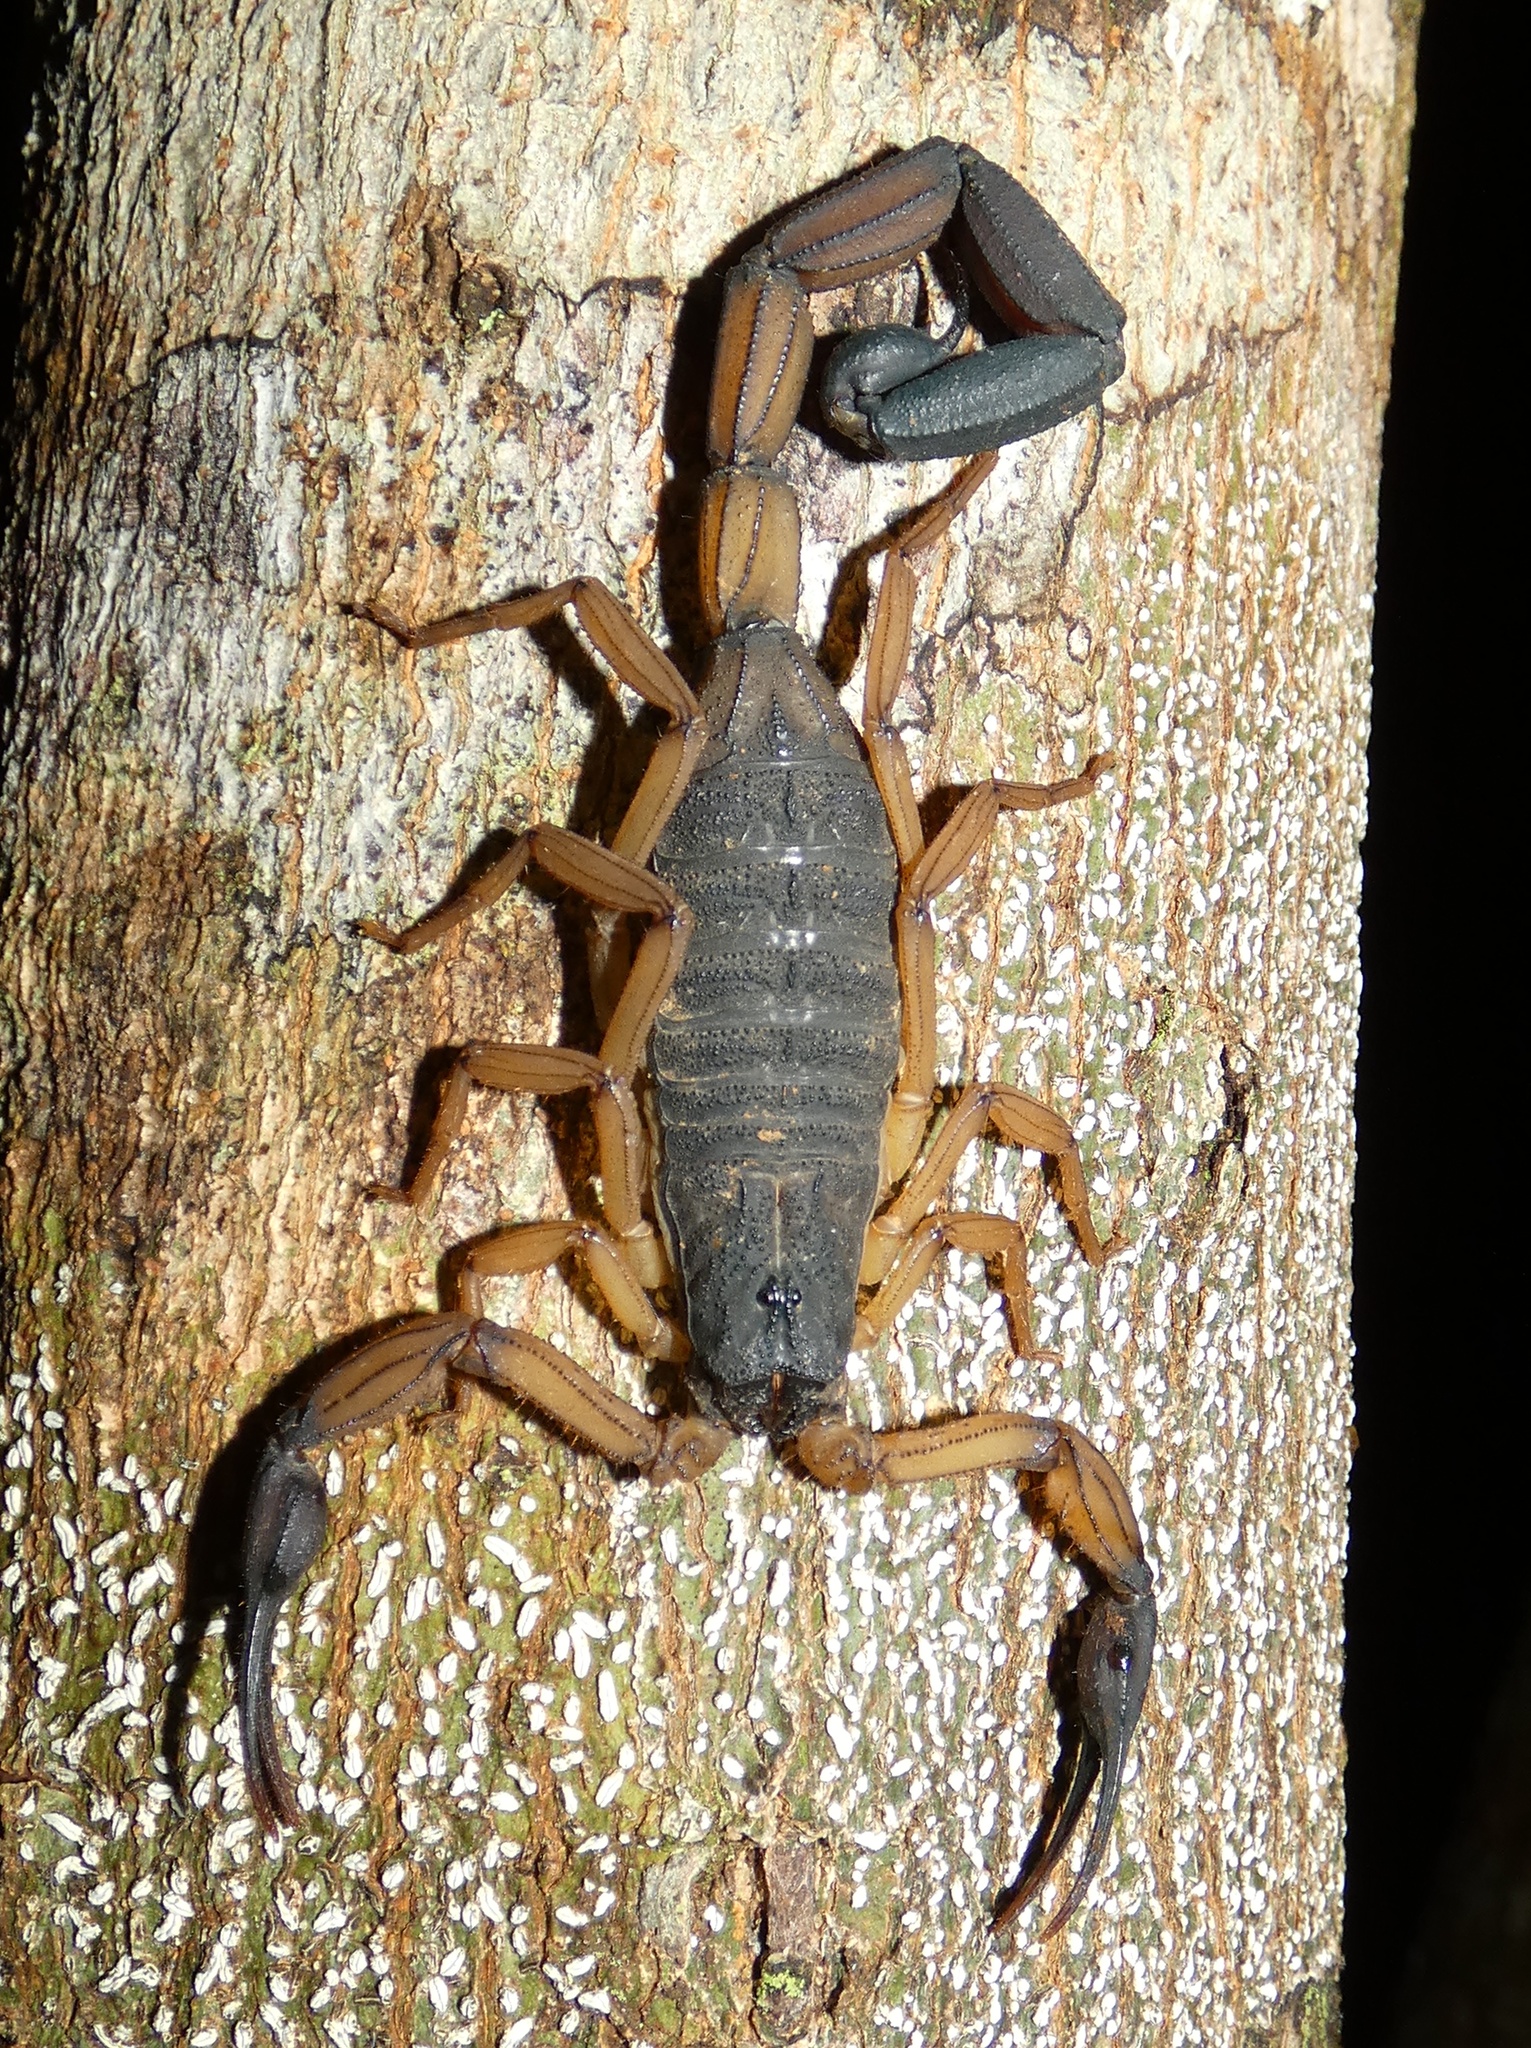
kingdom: Animalia
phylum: Arthropoda
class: Arachnida
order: Scorpiones
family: Buthidae
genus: Centruroides
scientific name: Centruroides bicolor
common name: Scorpions
